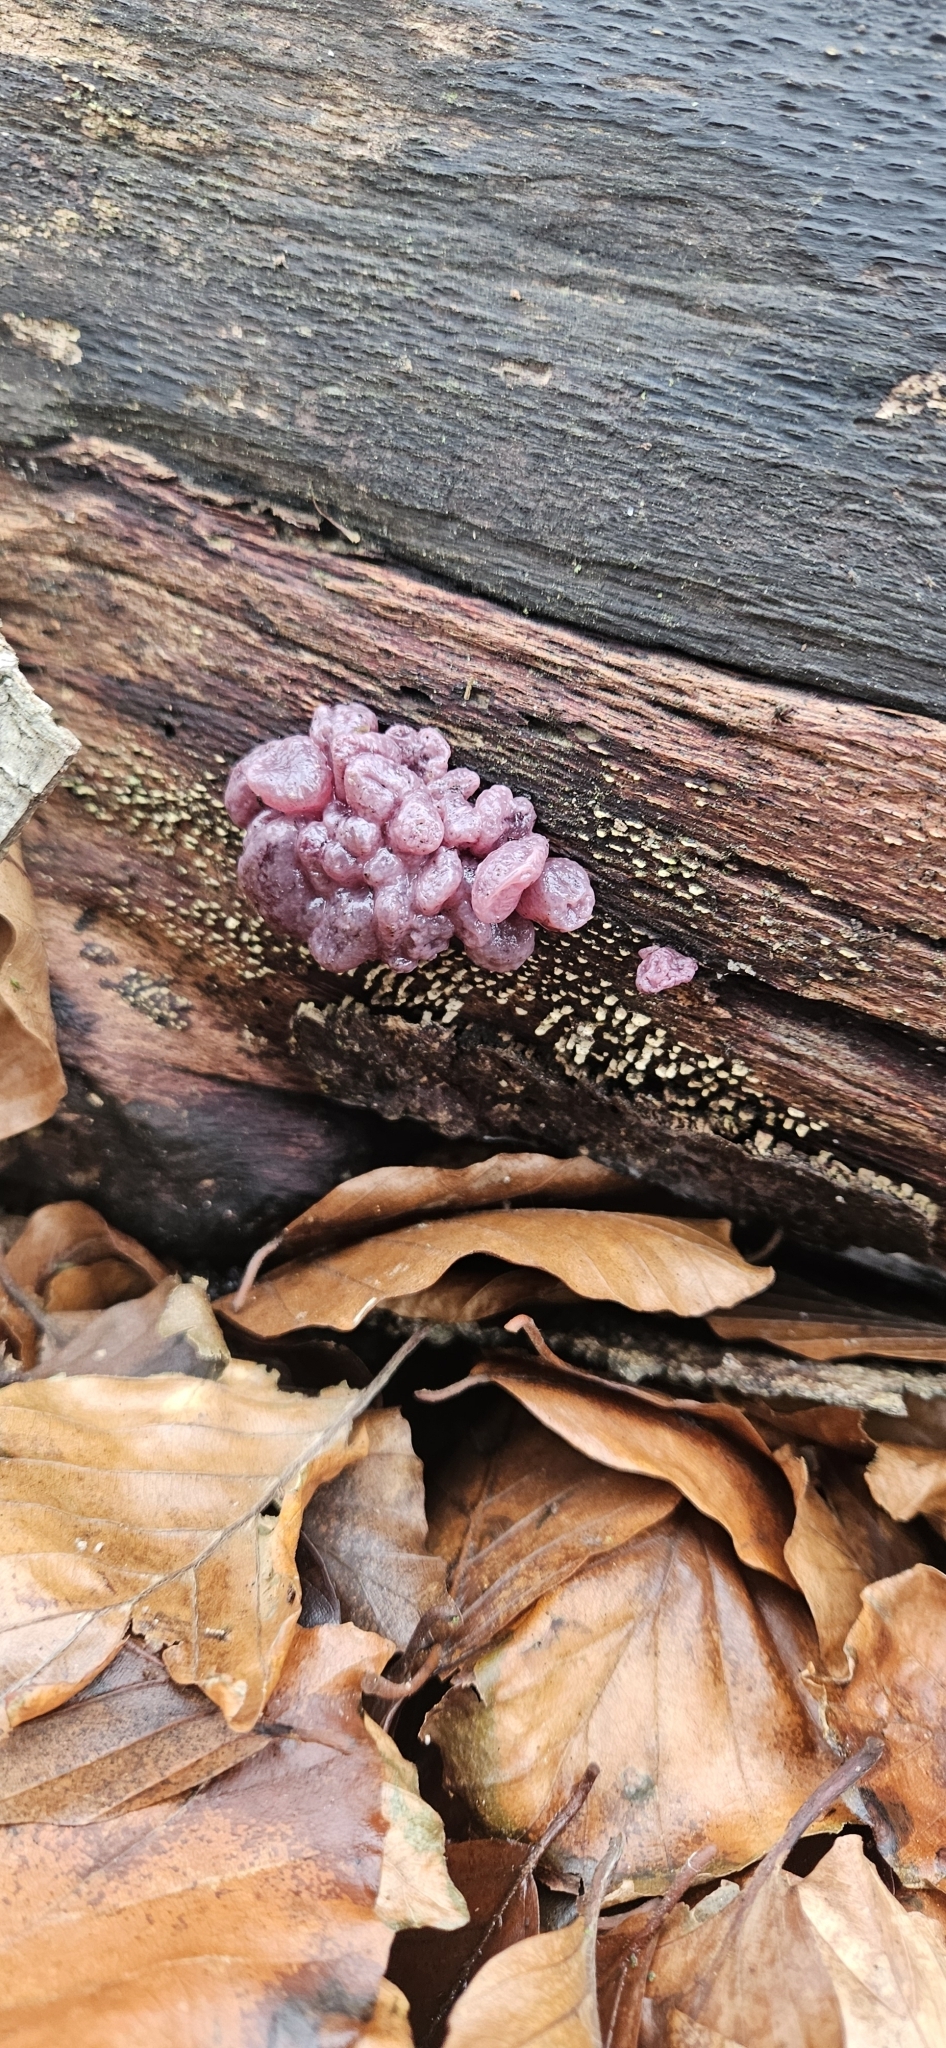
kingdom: Fungi
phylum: Ascomycota
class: Leotiomycetes
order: Helotiales
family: Gelatinodiscaceae
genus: Ascocoryne
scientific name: Ascocoryne sarcoides
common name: Purple jellydisc
